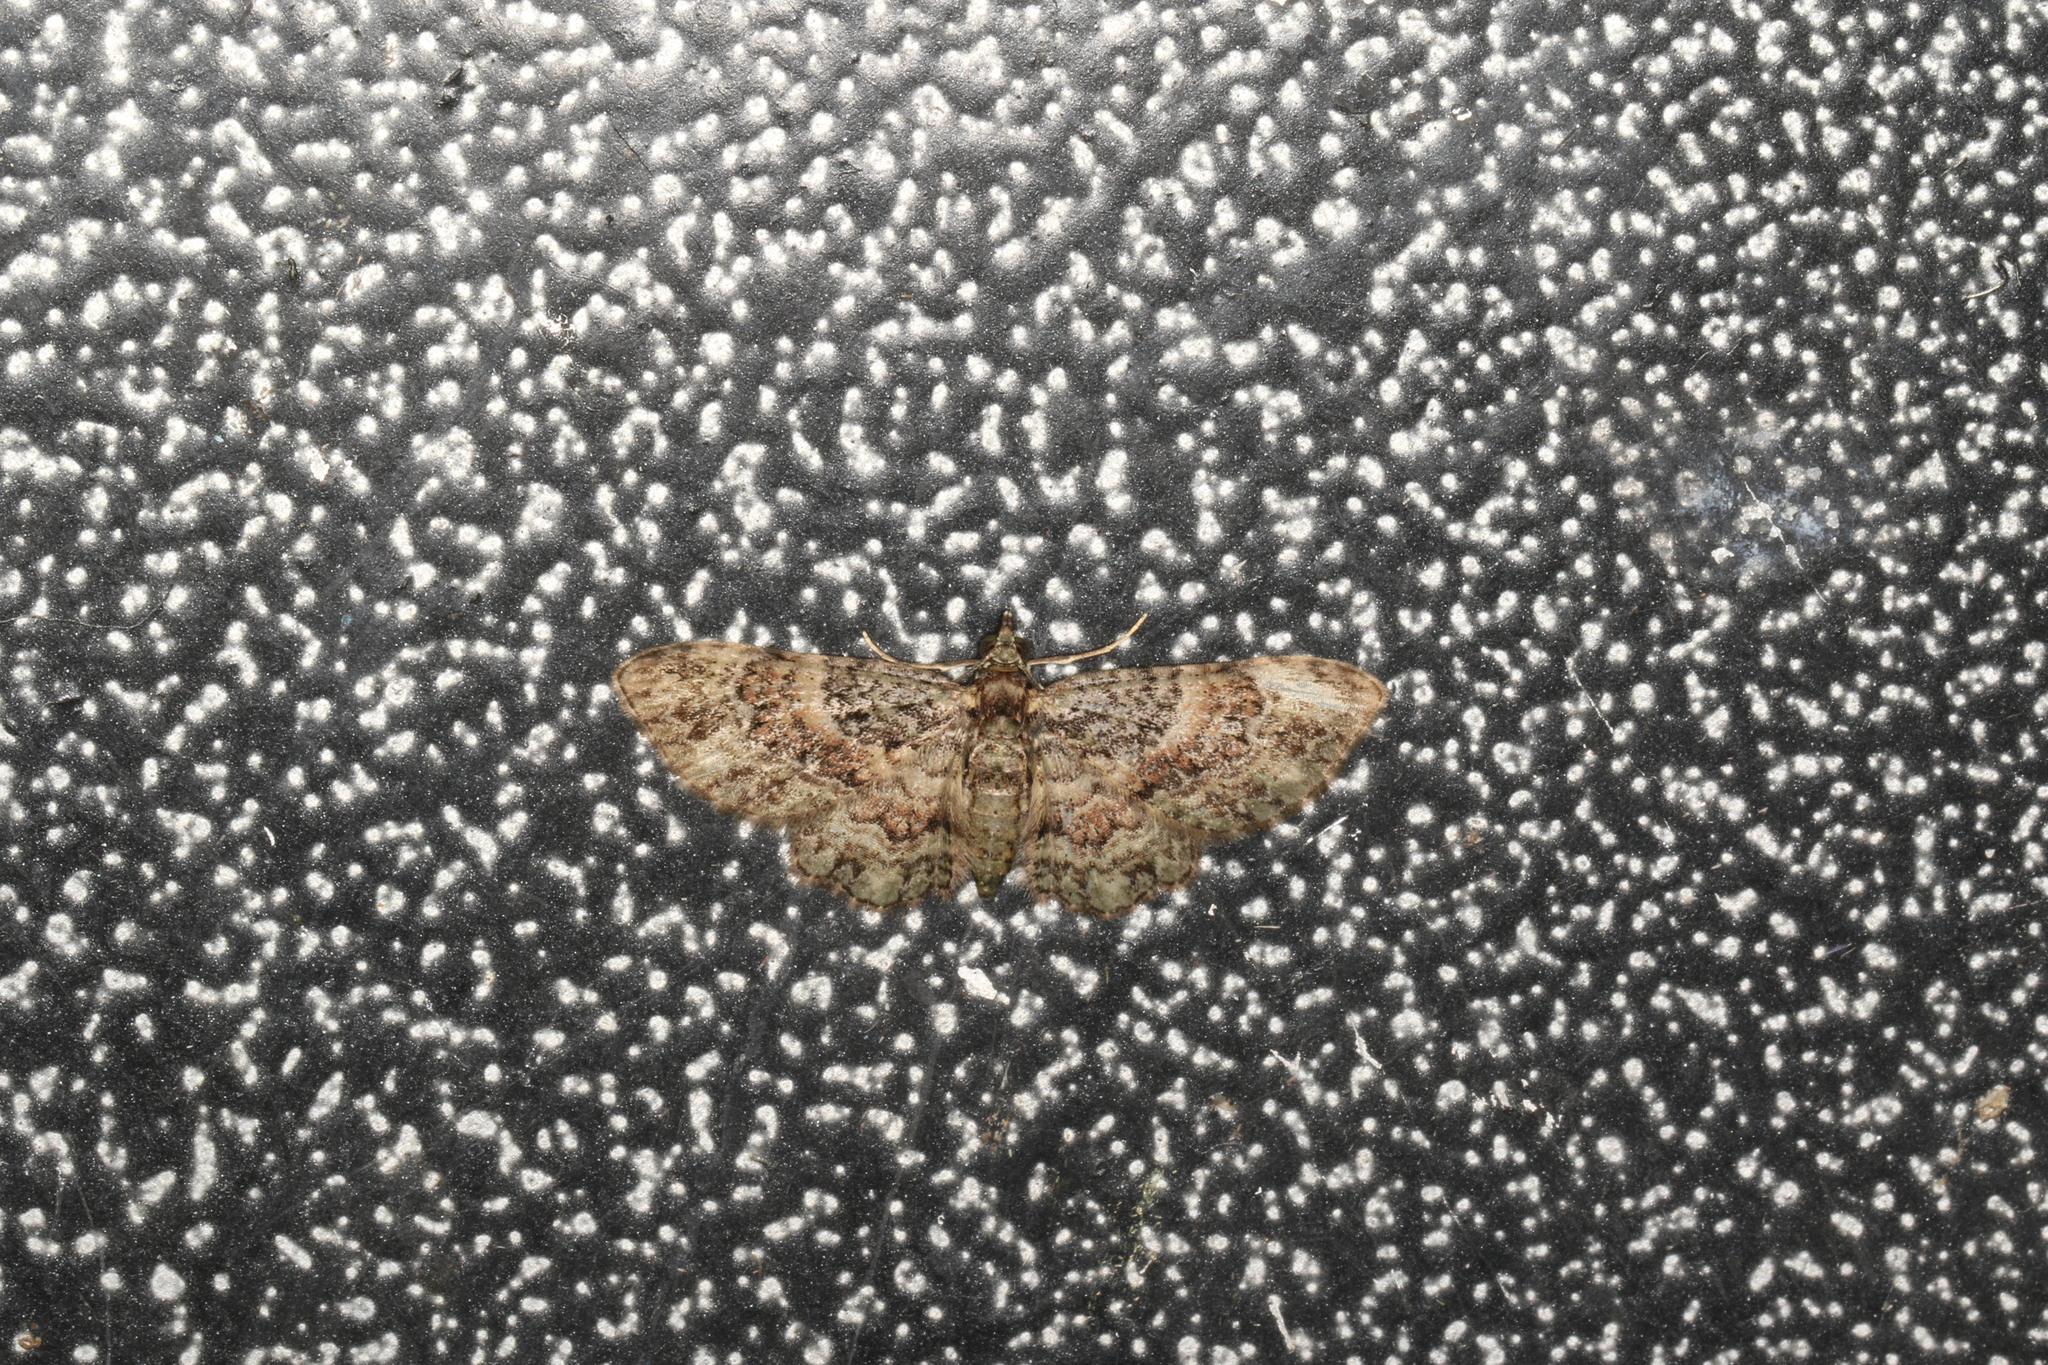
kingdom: Animalia
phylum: Arthropoda
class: Insecta
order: Lepidoptera
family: Geometridae
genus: Chloroclystis
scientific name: Chloroclystis catastreptes
